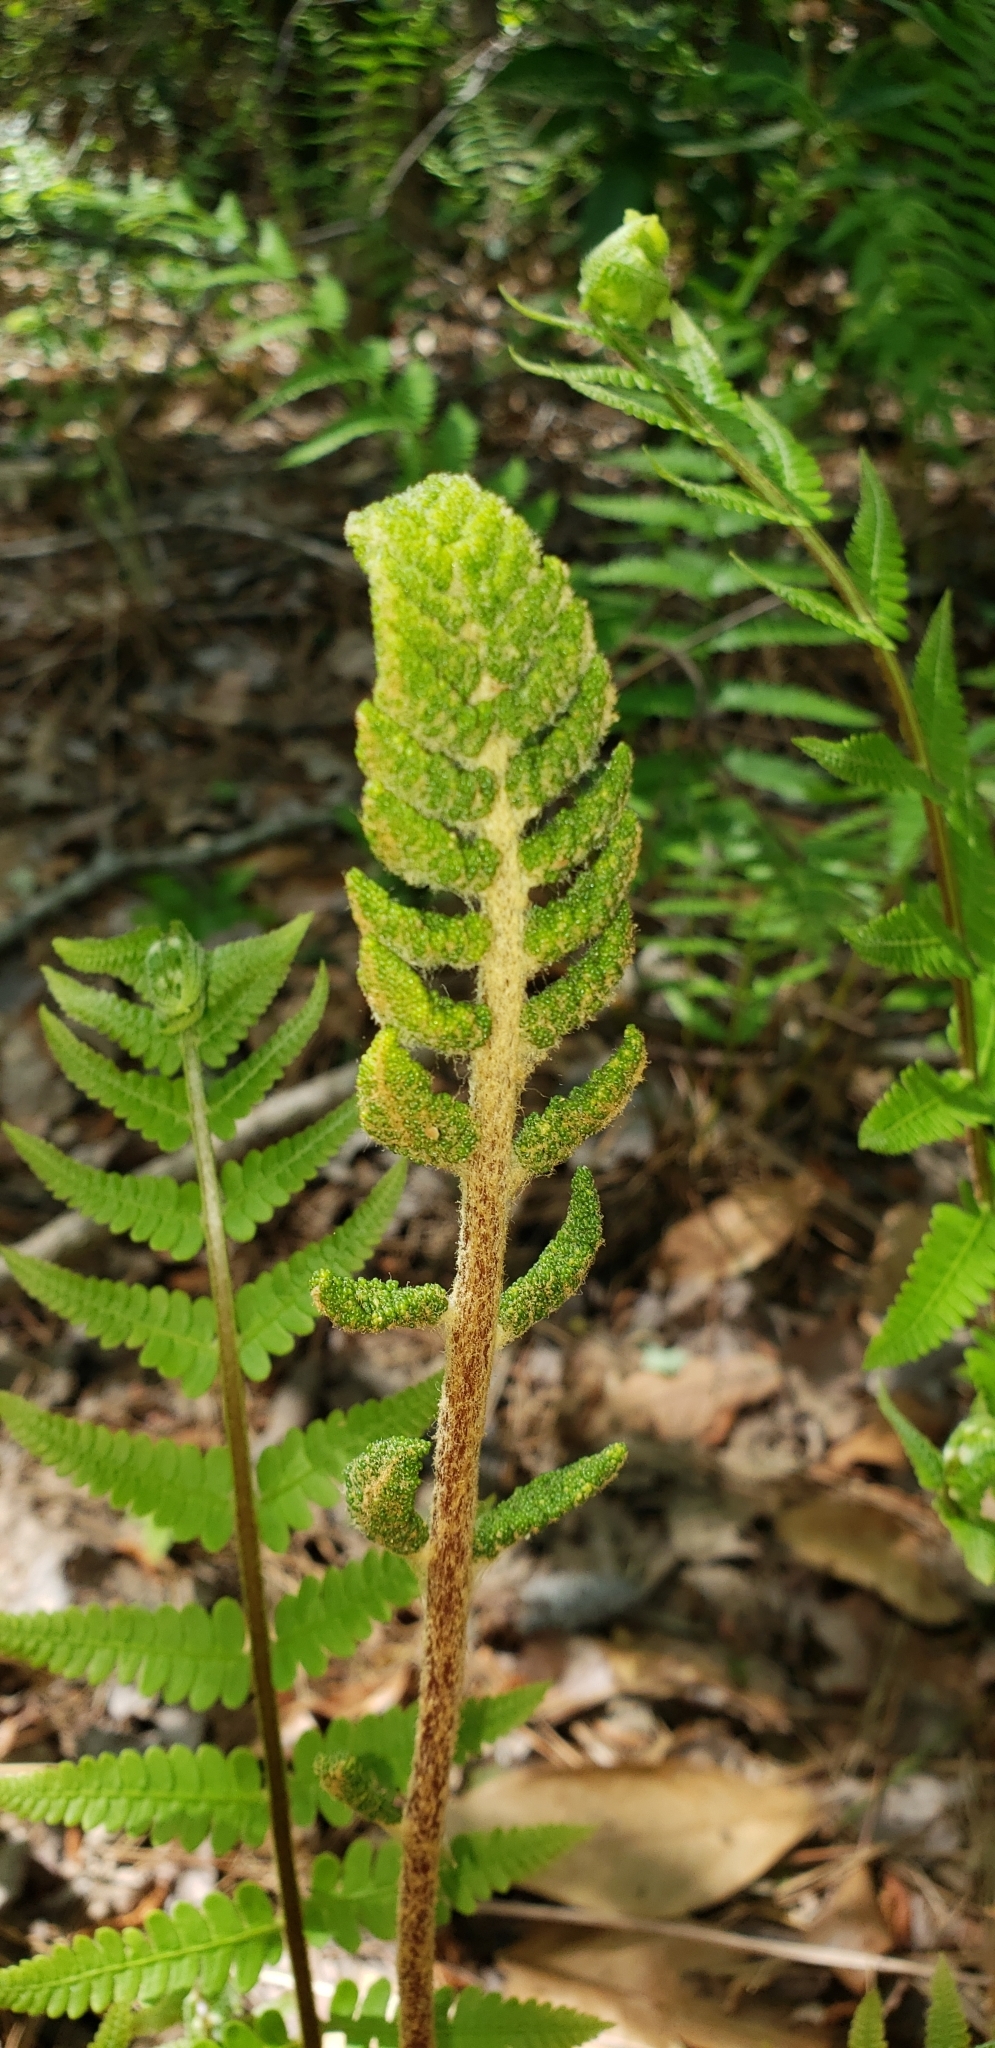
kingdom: Plantae
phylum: Tracheophyta
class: Polypodiopsida
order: Osmundales
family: Osmundaceae
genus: Osmundastrum
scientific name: Osmundastrum cinnamomeum
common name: Cinnamon fern
